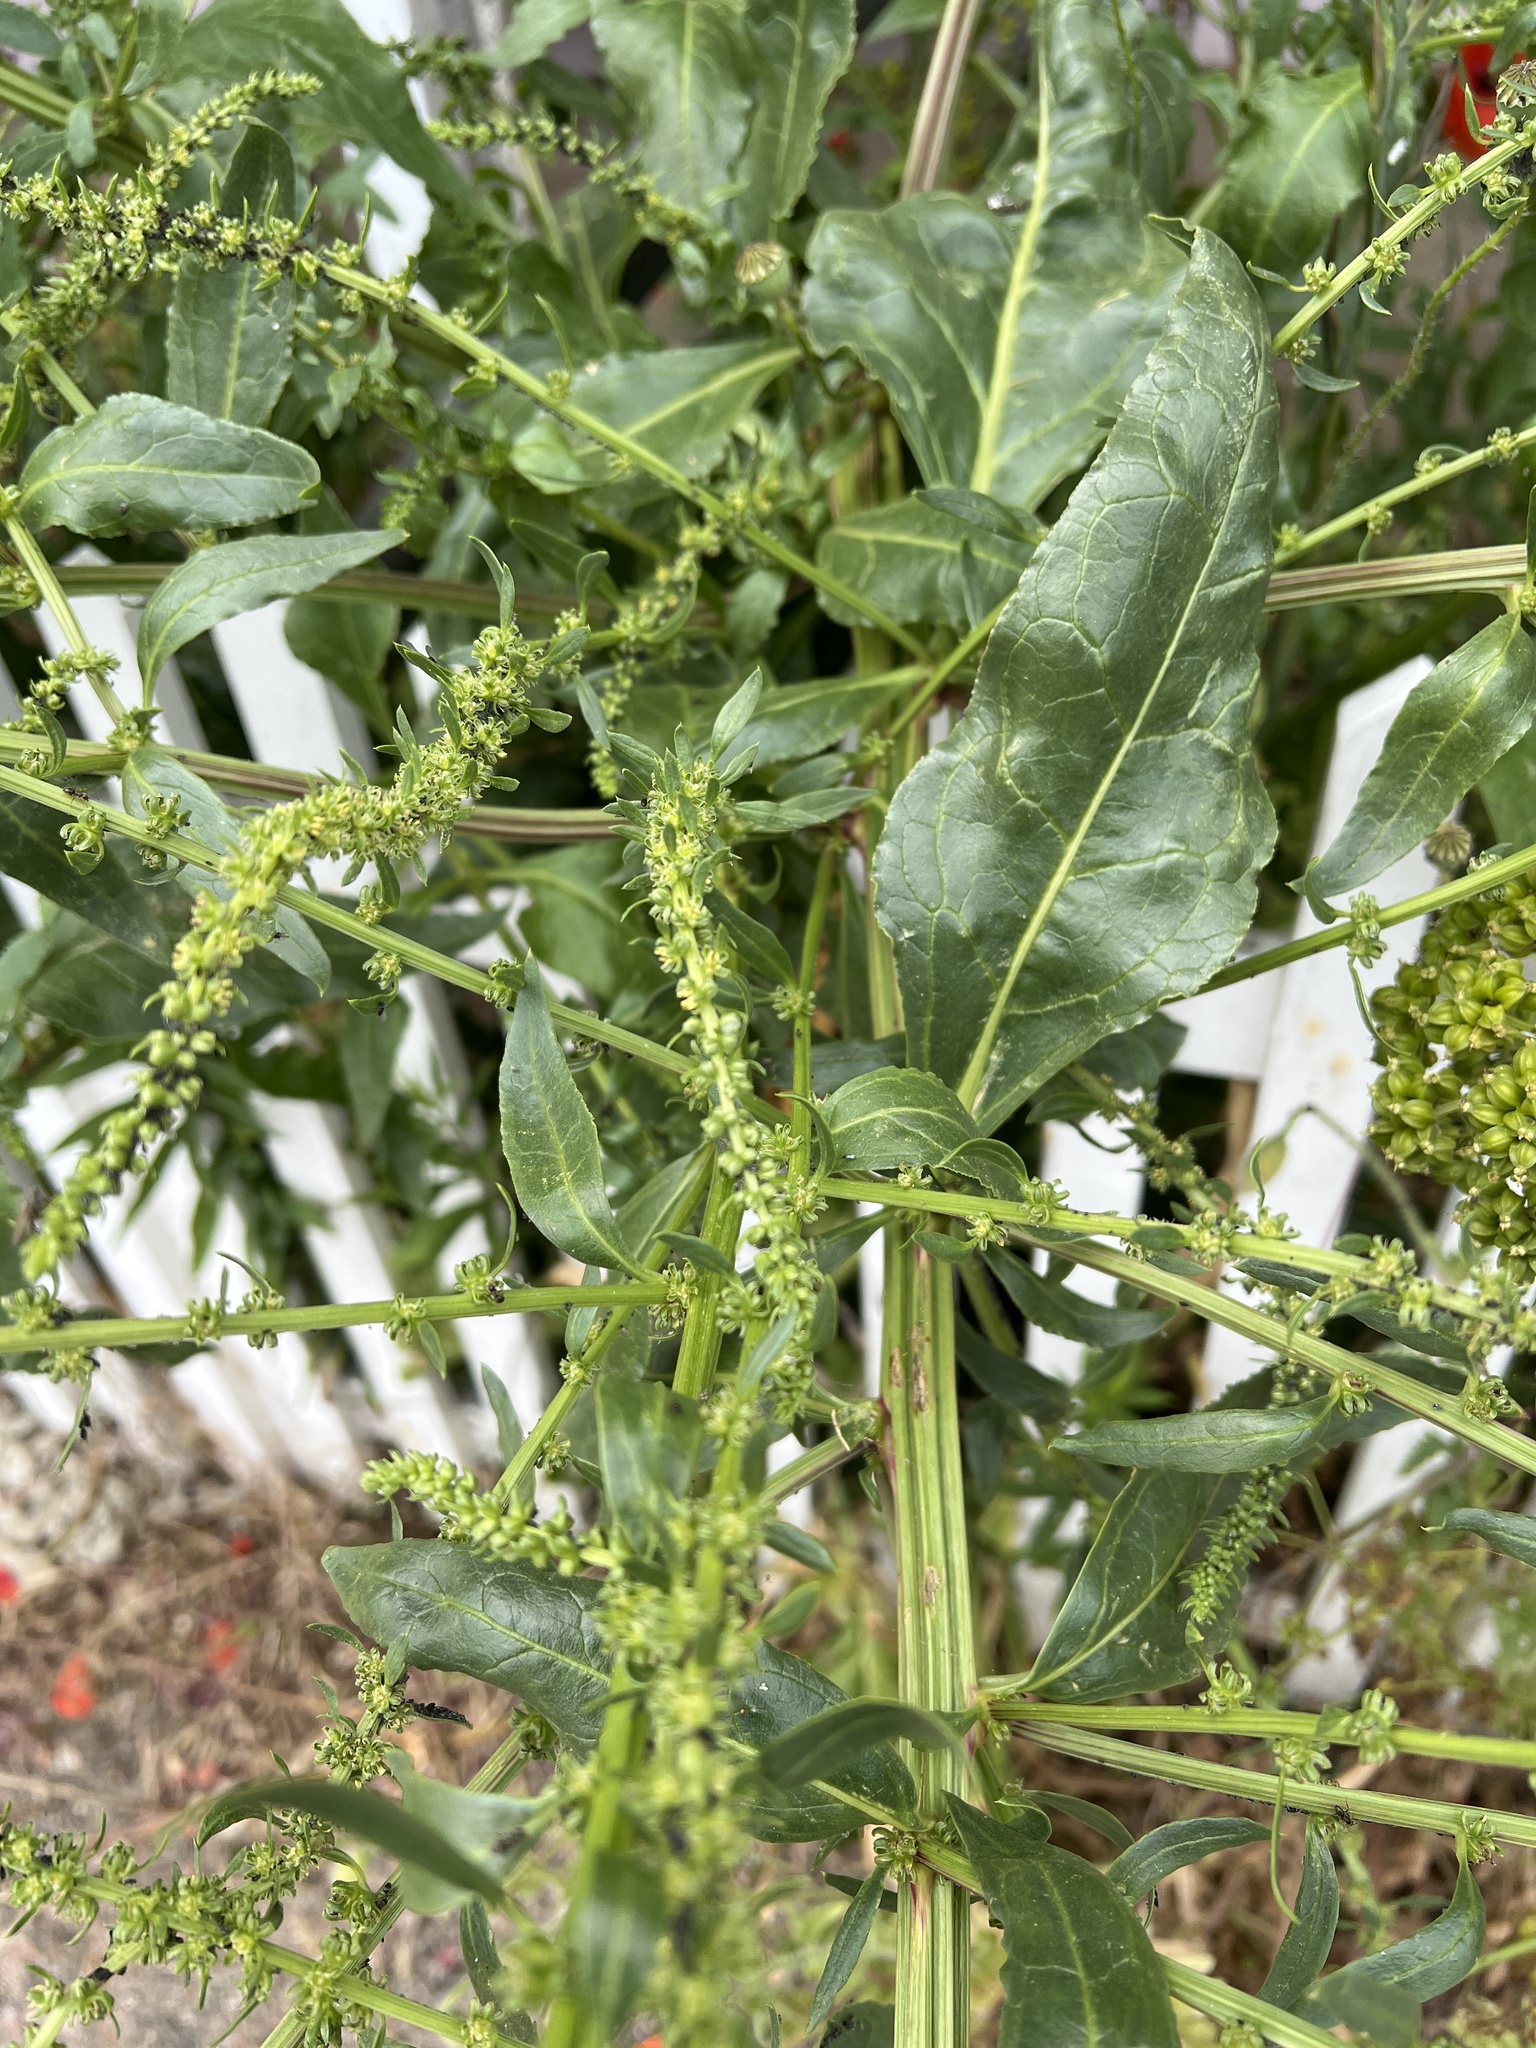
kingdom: Plantae
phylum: Tracheophyta
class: Magnoliopsida
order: Brassicales
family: Resedaceae
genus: Reseda
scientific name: Reseda luteola
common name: Weld
